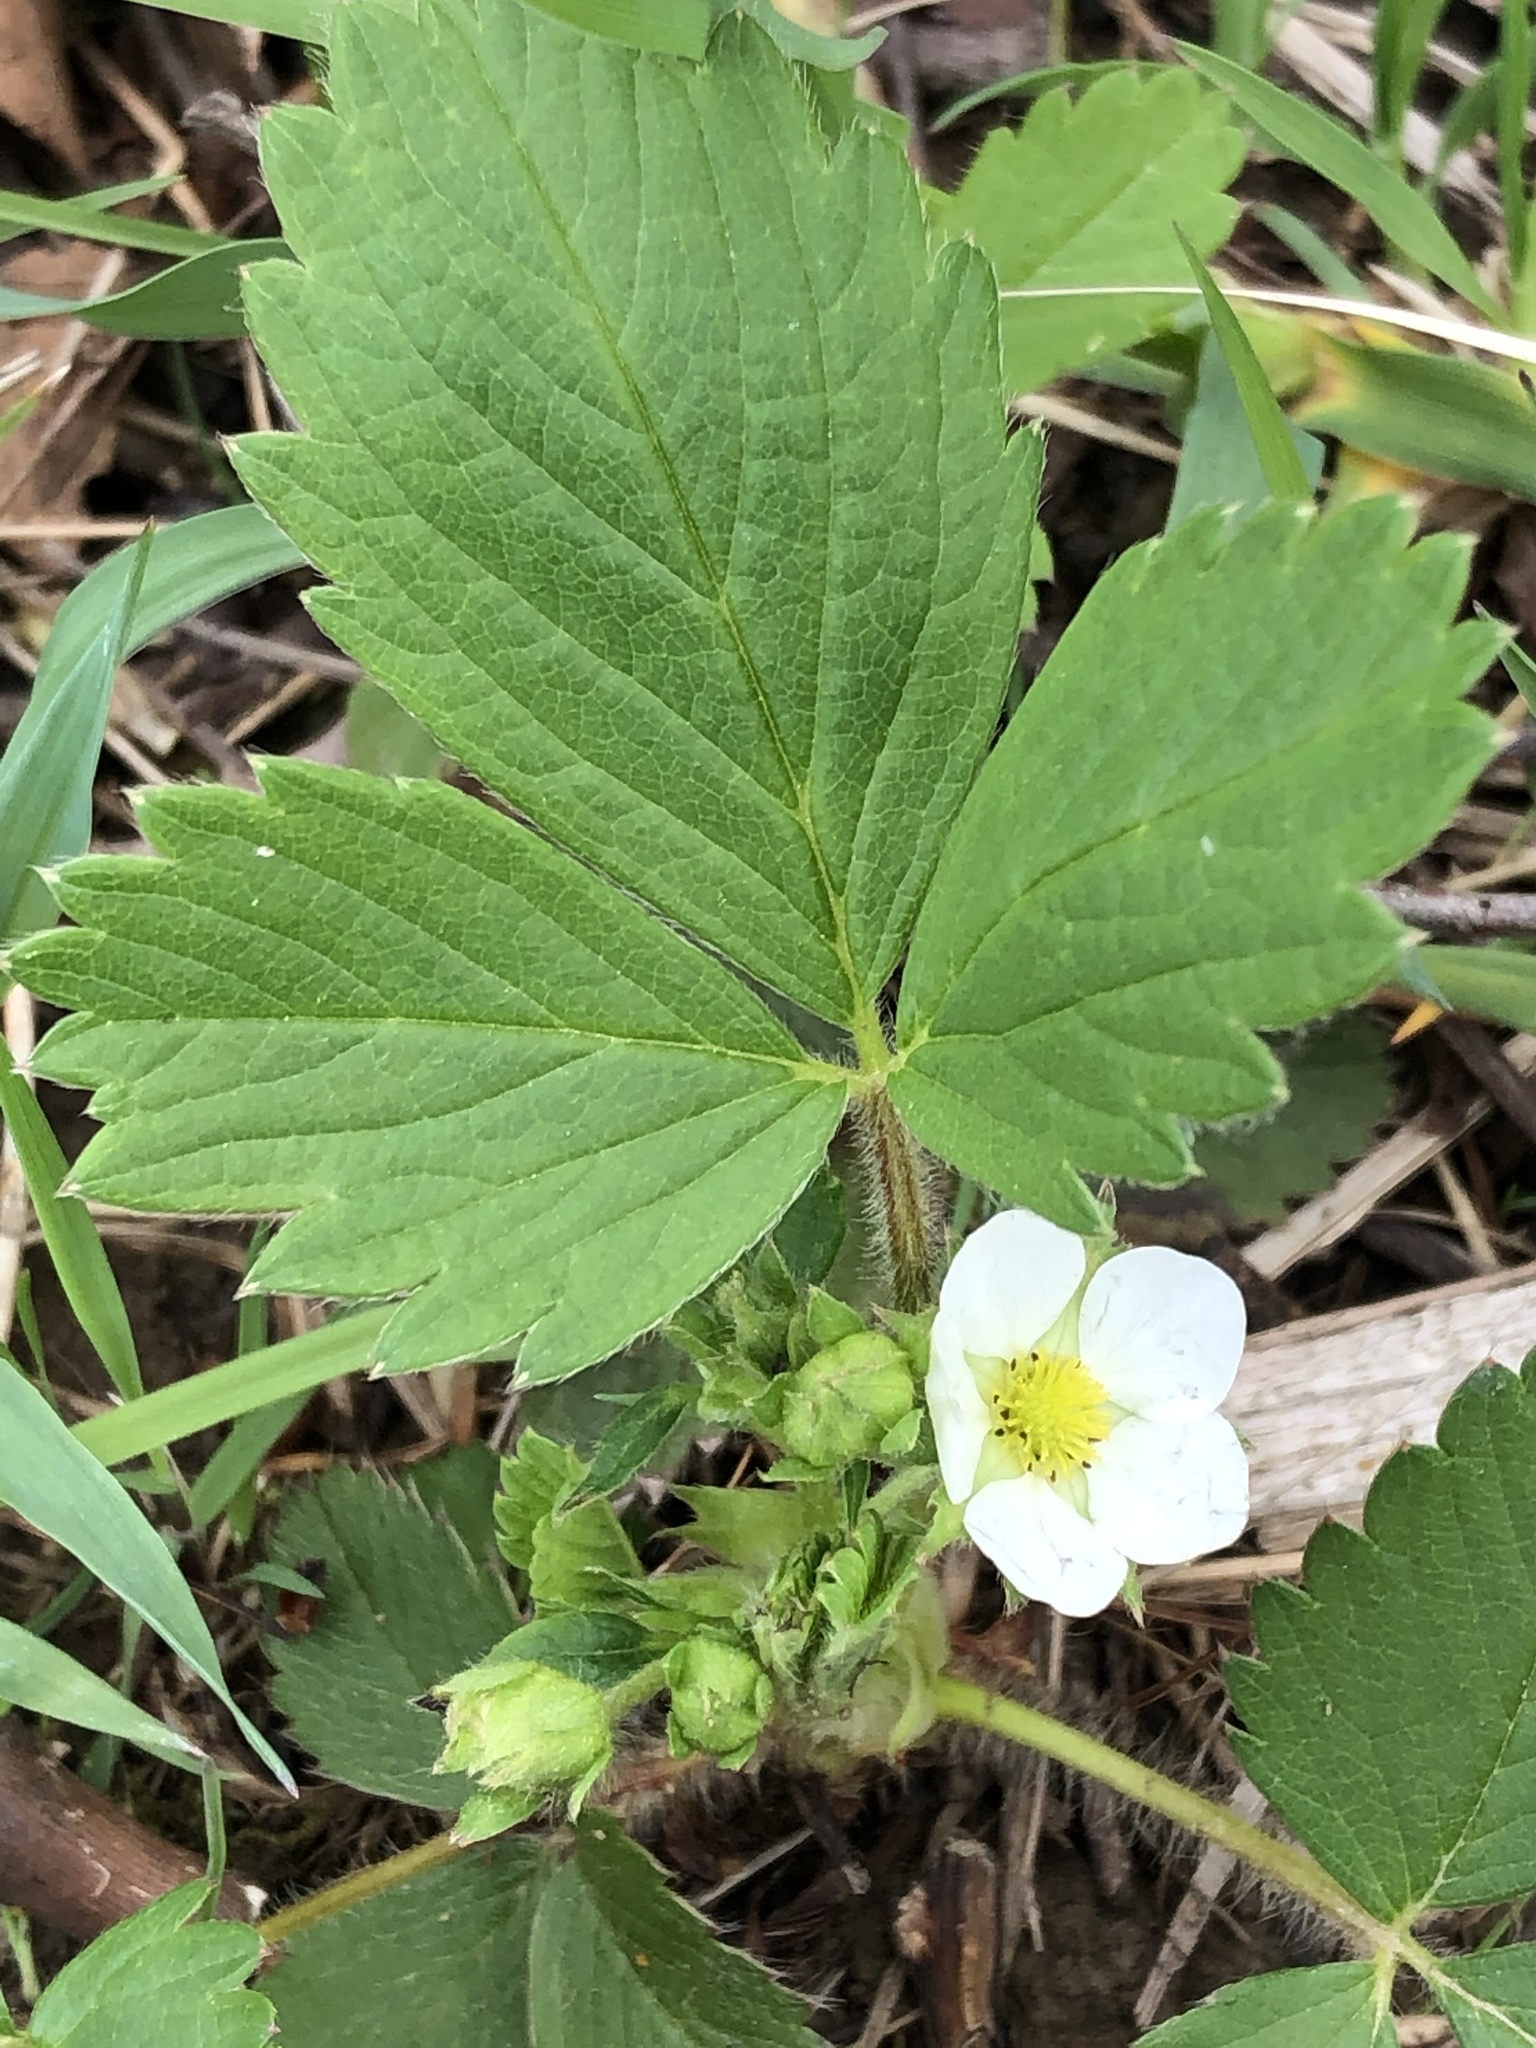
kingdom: Plantae
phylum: Tracheophyta
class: Magnoliopsida
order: Rosales
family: Rosaceae
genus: Fragaria
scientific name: Fragaria vesca
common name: Wild strawberry
